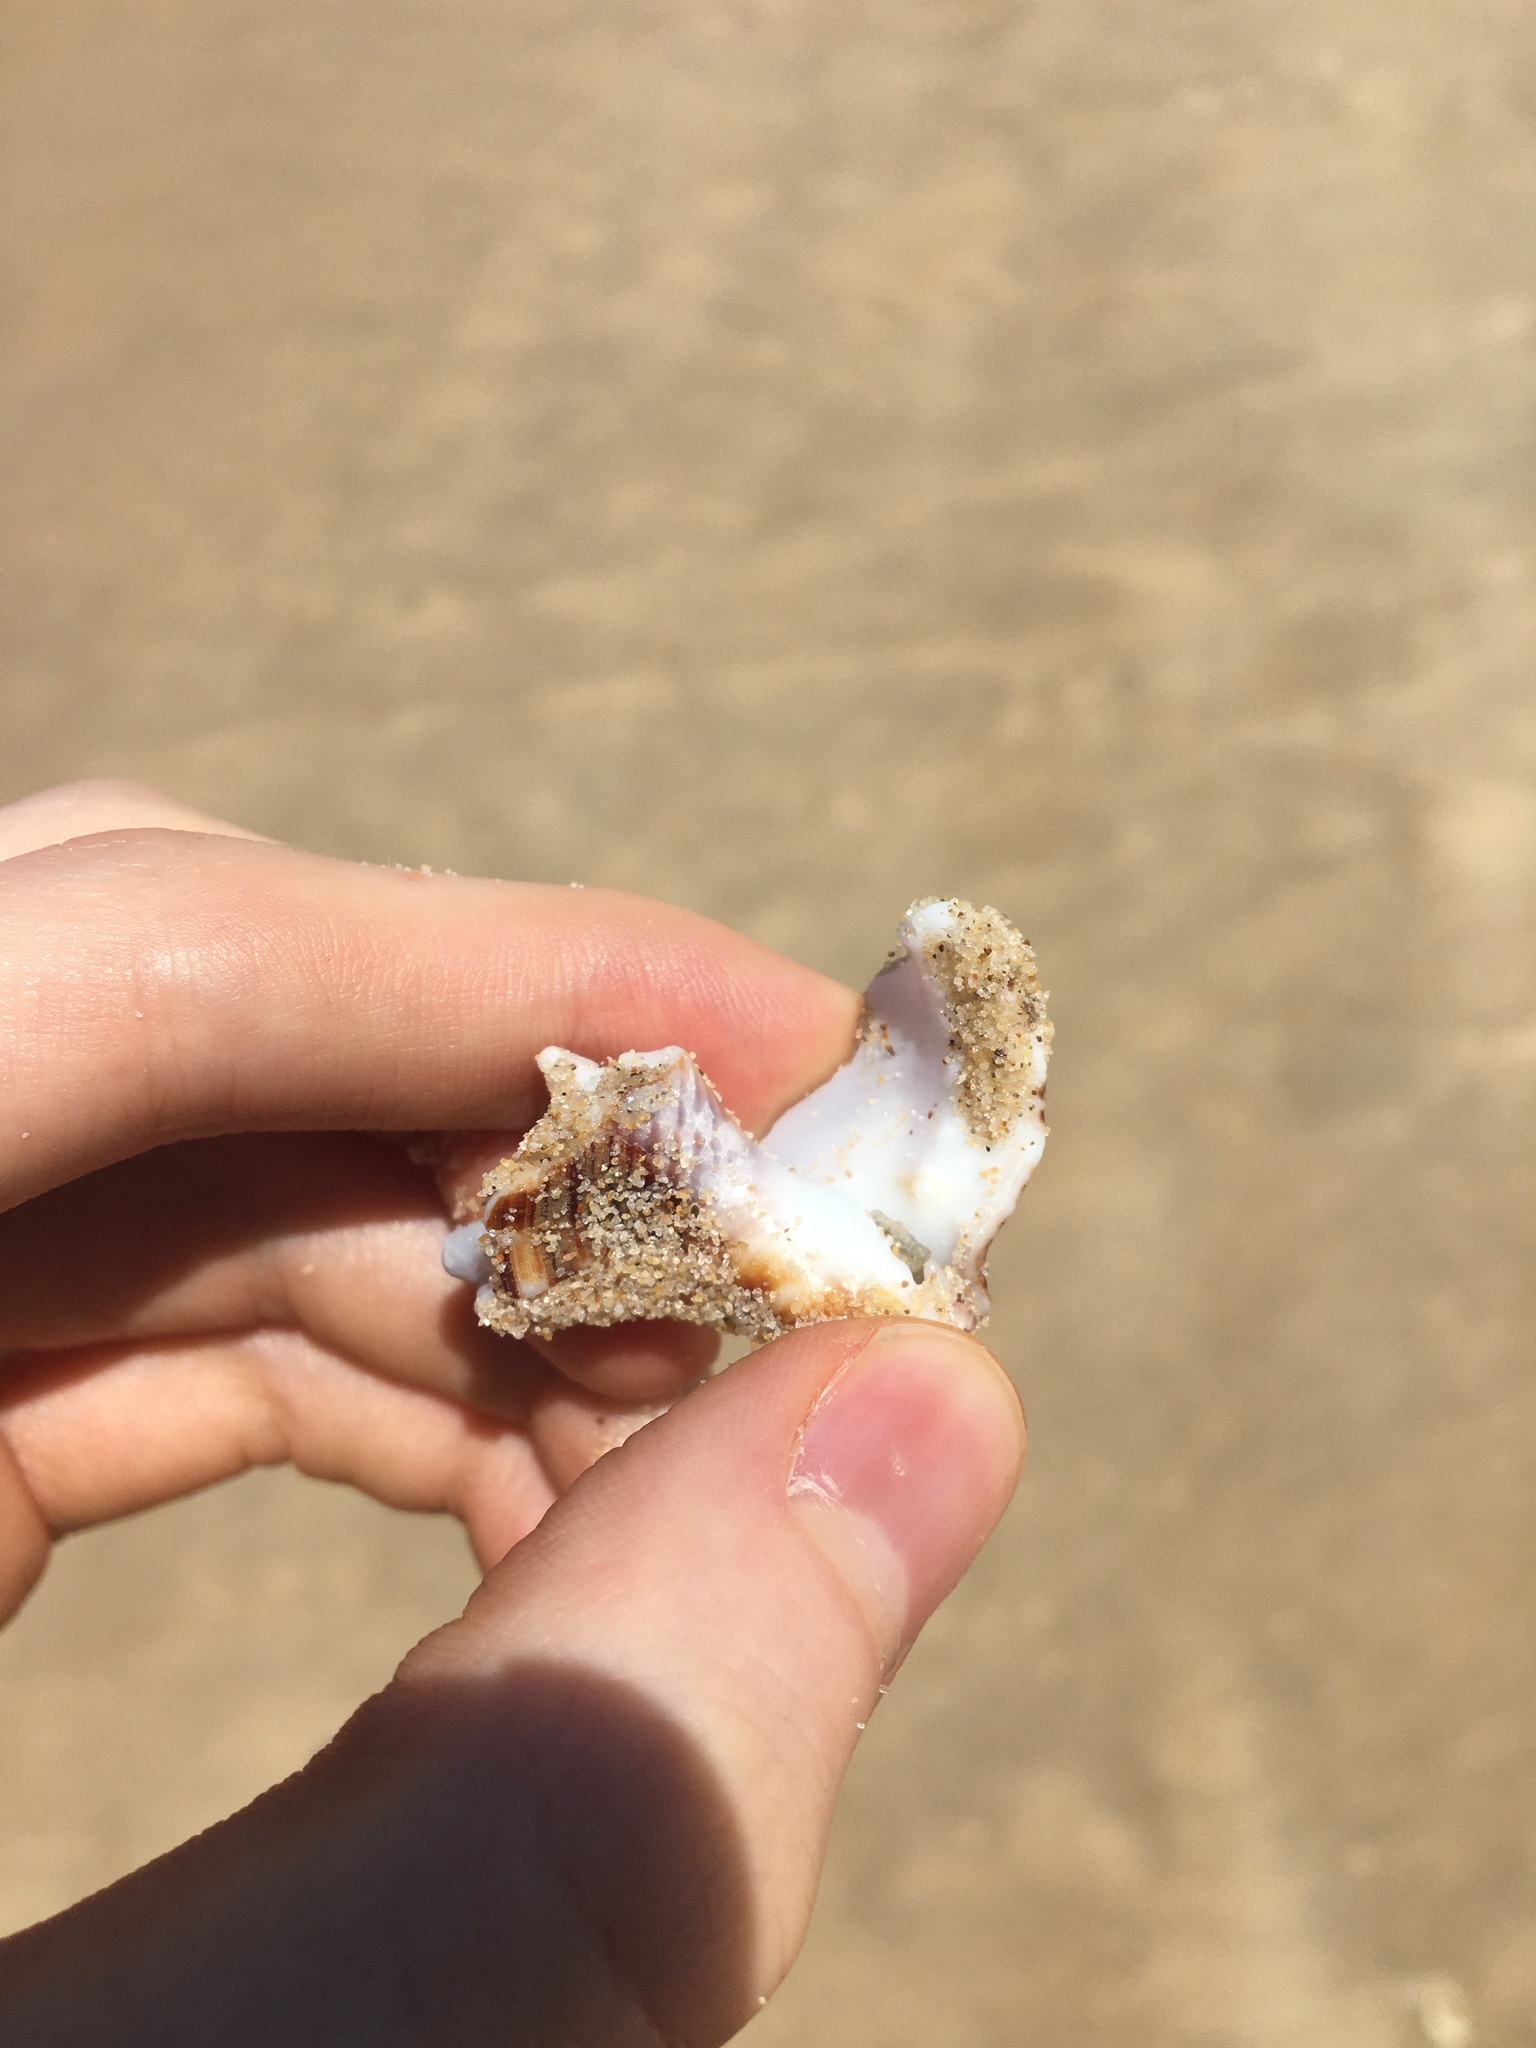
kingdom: Animalia
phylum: Mollusca
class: Gastropoda
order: Littorinimorpha
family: Ranellidae
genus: Ranella
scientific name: Ranella australasia
